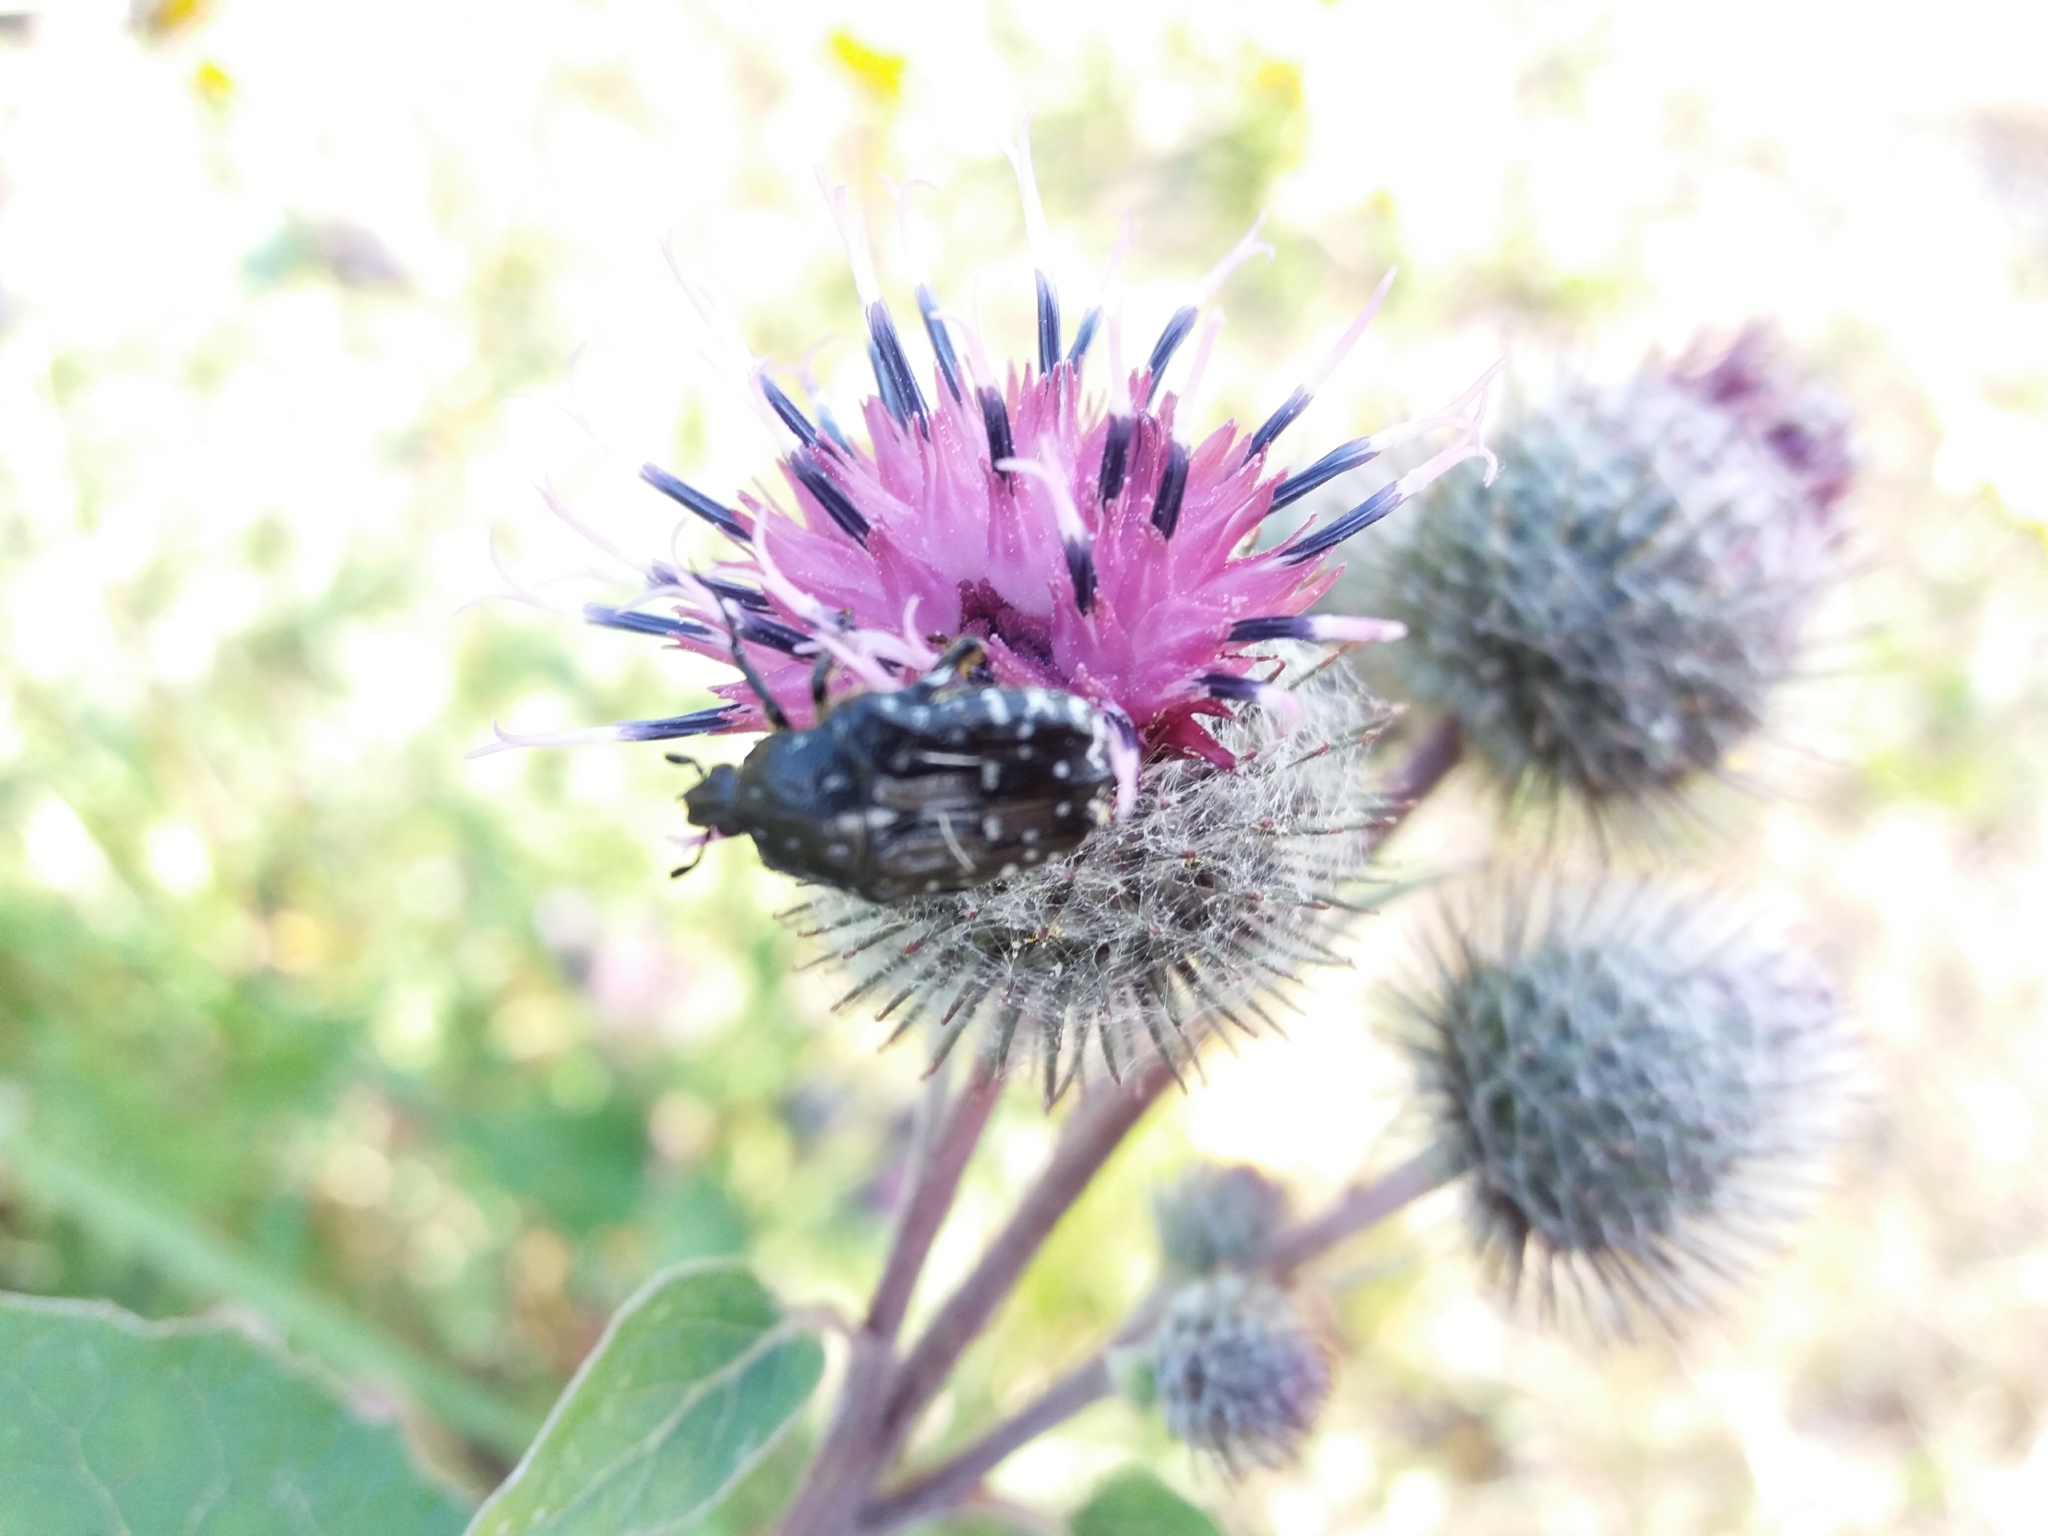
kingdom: Animalia
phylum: Arthropoda
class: Insecta
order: Coleoptera
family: Scarabaeidae
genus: Oxythyrea
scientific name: Oxythyrea funesta
